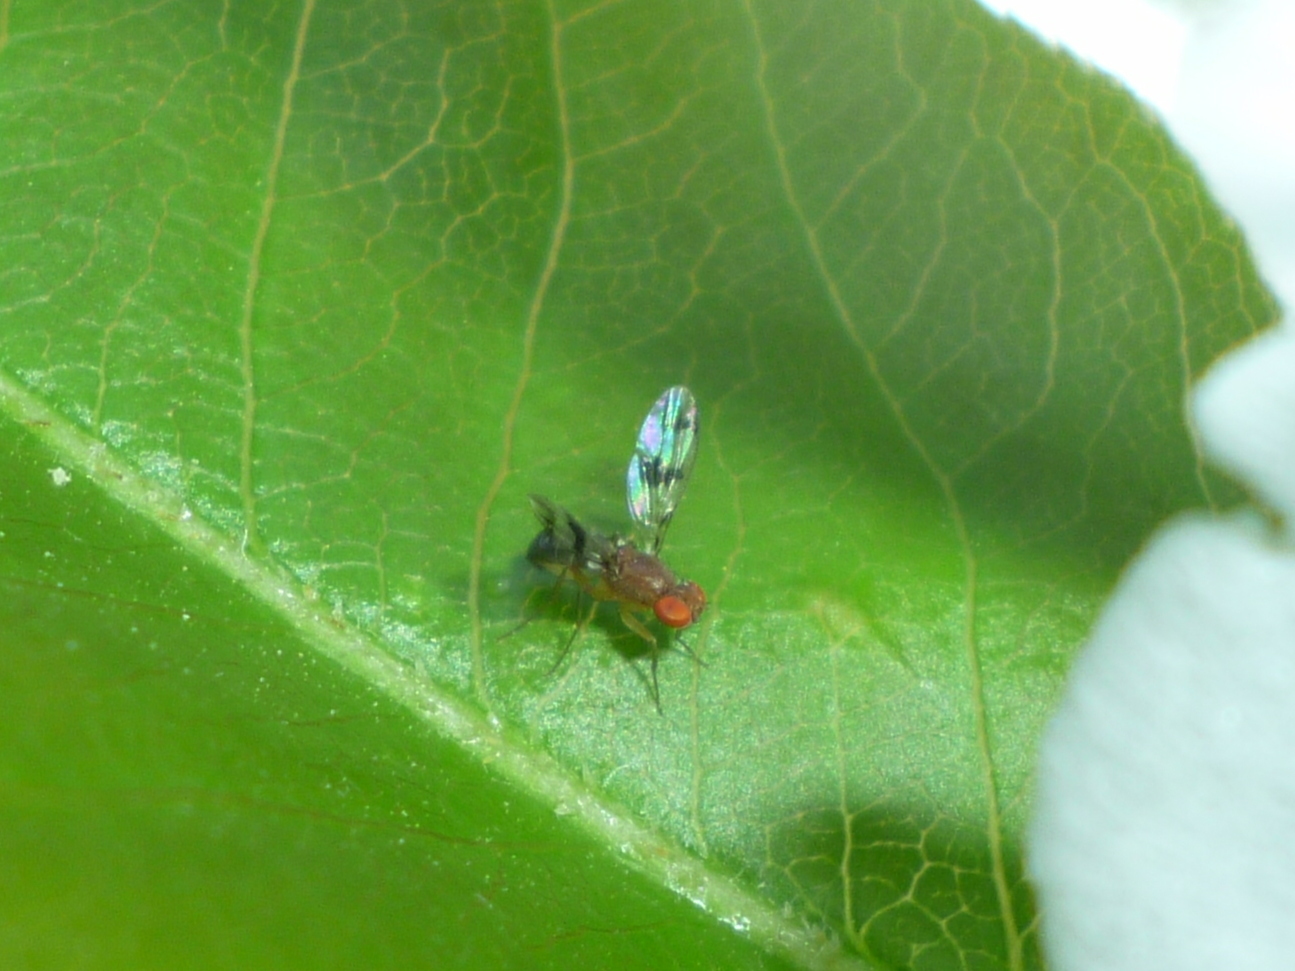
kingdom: Animalia
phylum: Arthropoda
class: Insecta
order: Diptera
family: Drosophilidae
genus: Chymomyza
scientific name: Chymomyza amoena
